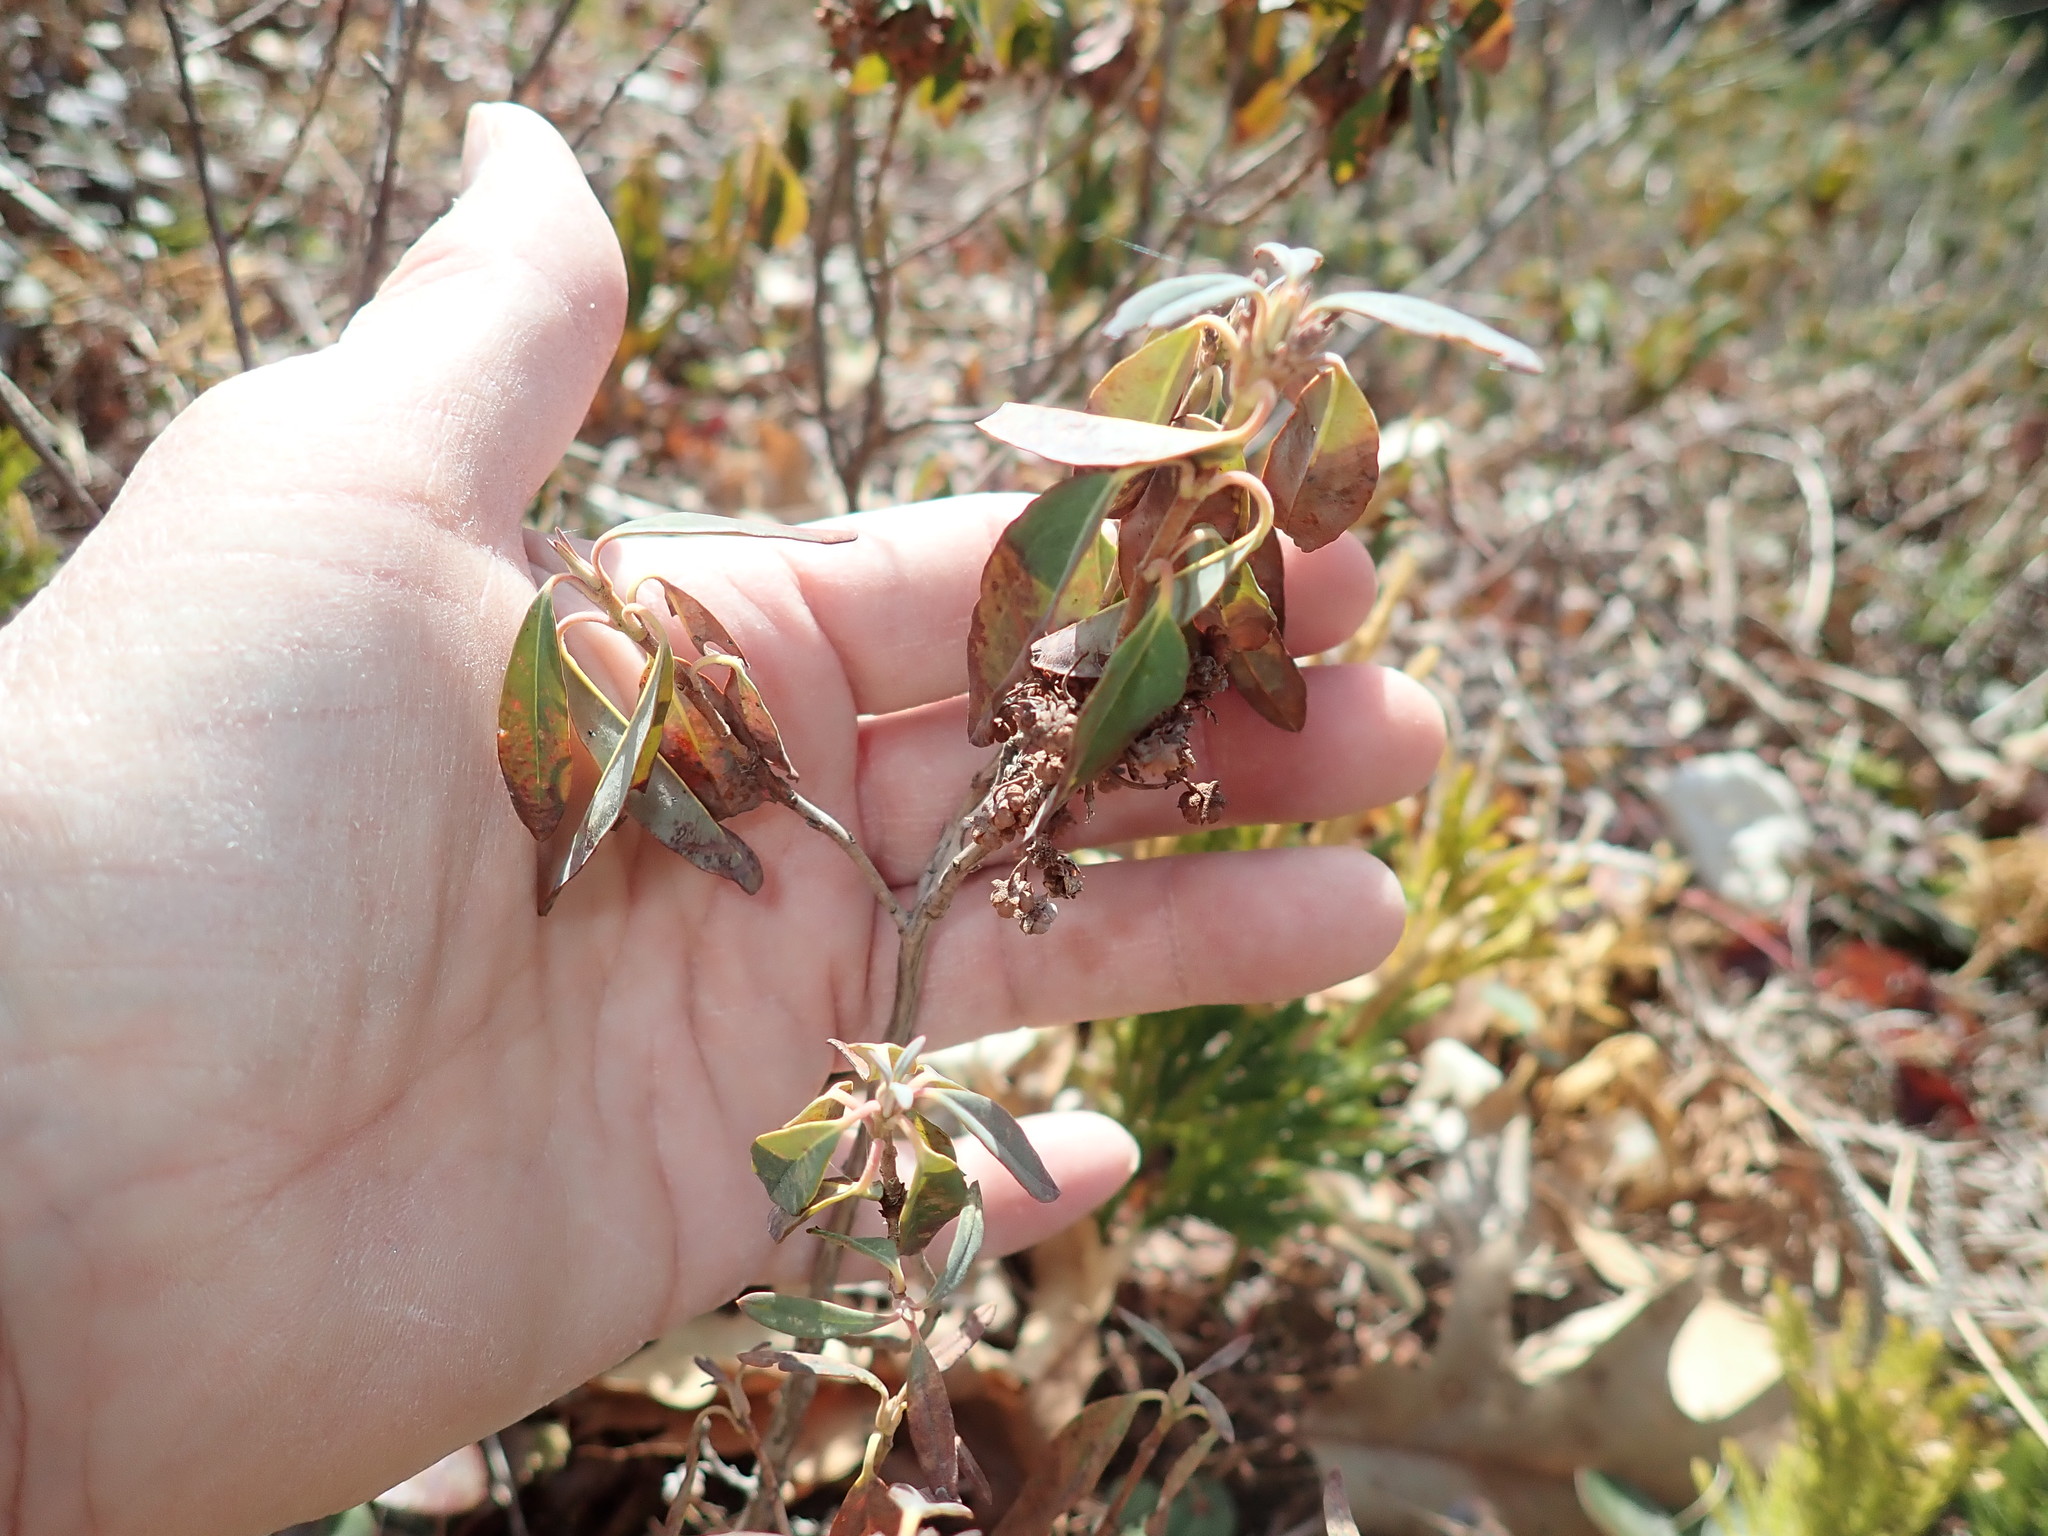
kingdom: Plantae
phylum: Tracheophyta
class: Magnoliopsida
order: Ericales
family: Ericaceae
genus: Kalmia
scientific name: Kalmia angustifolia
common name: Sheep-laurel
